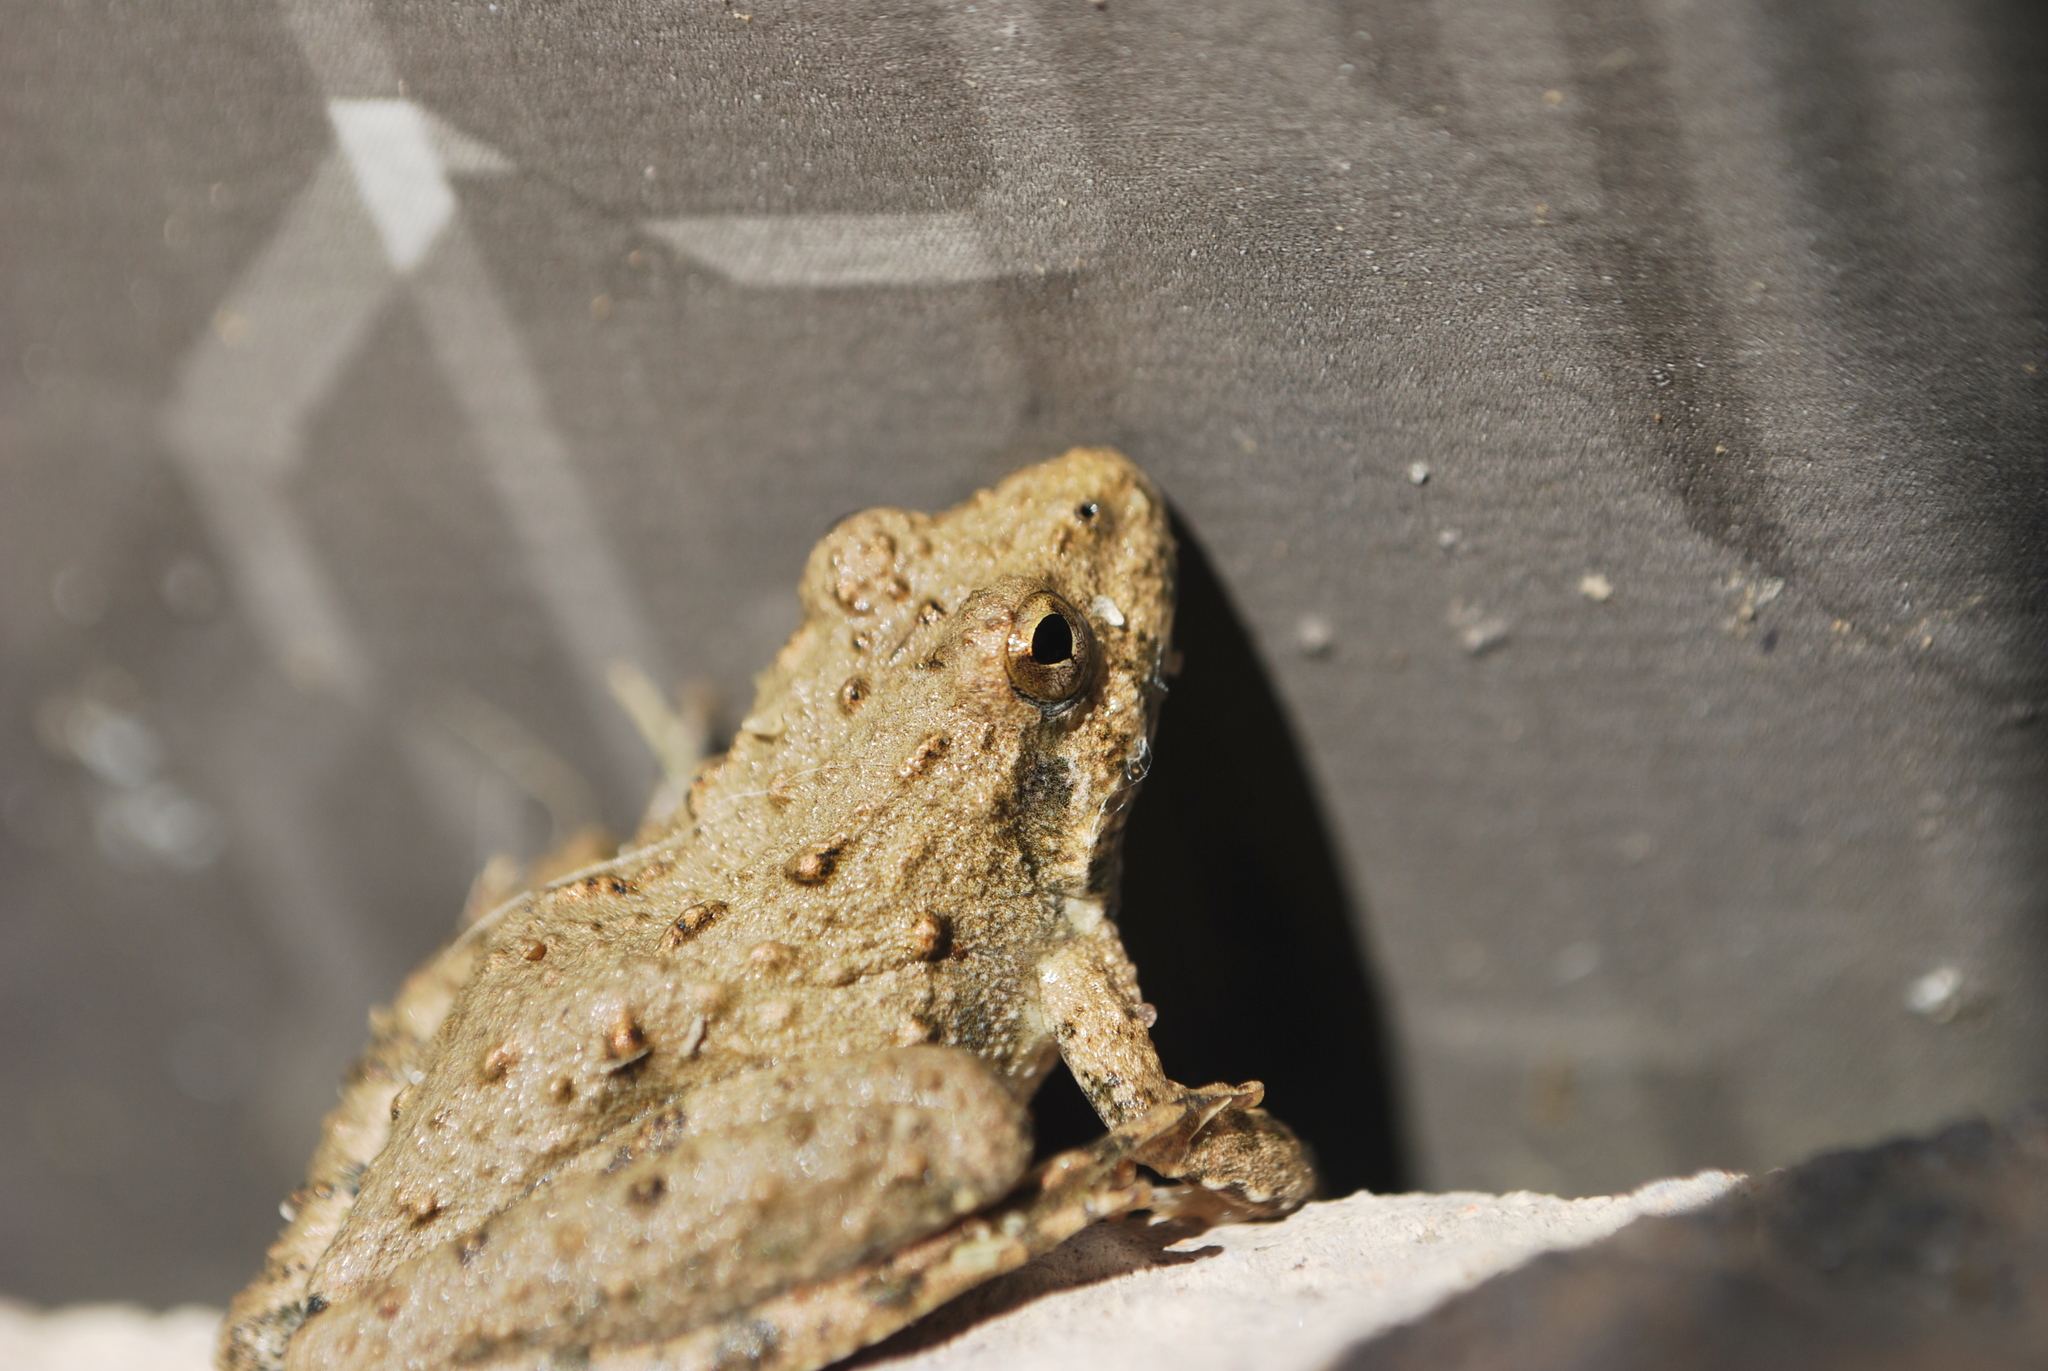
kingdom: Animalia
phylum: Chordata
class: Amphibia
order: Anura
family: Hylidae
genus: Acris
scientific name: Acris blanchardi
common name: Blanchard's cricket frog
